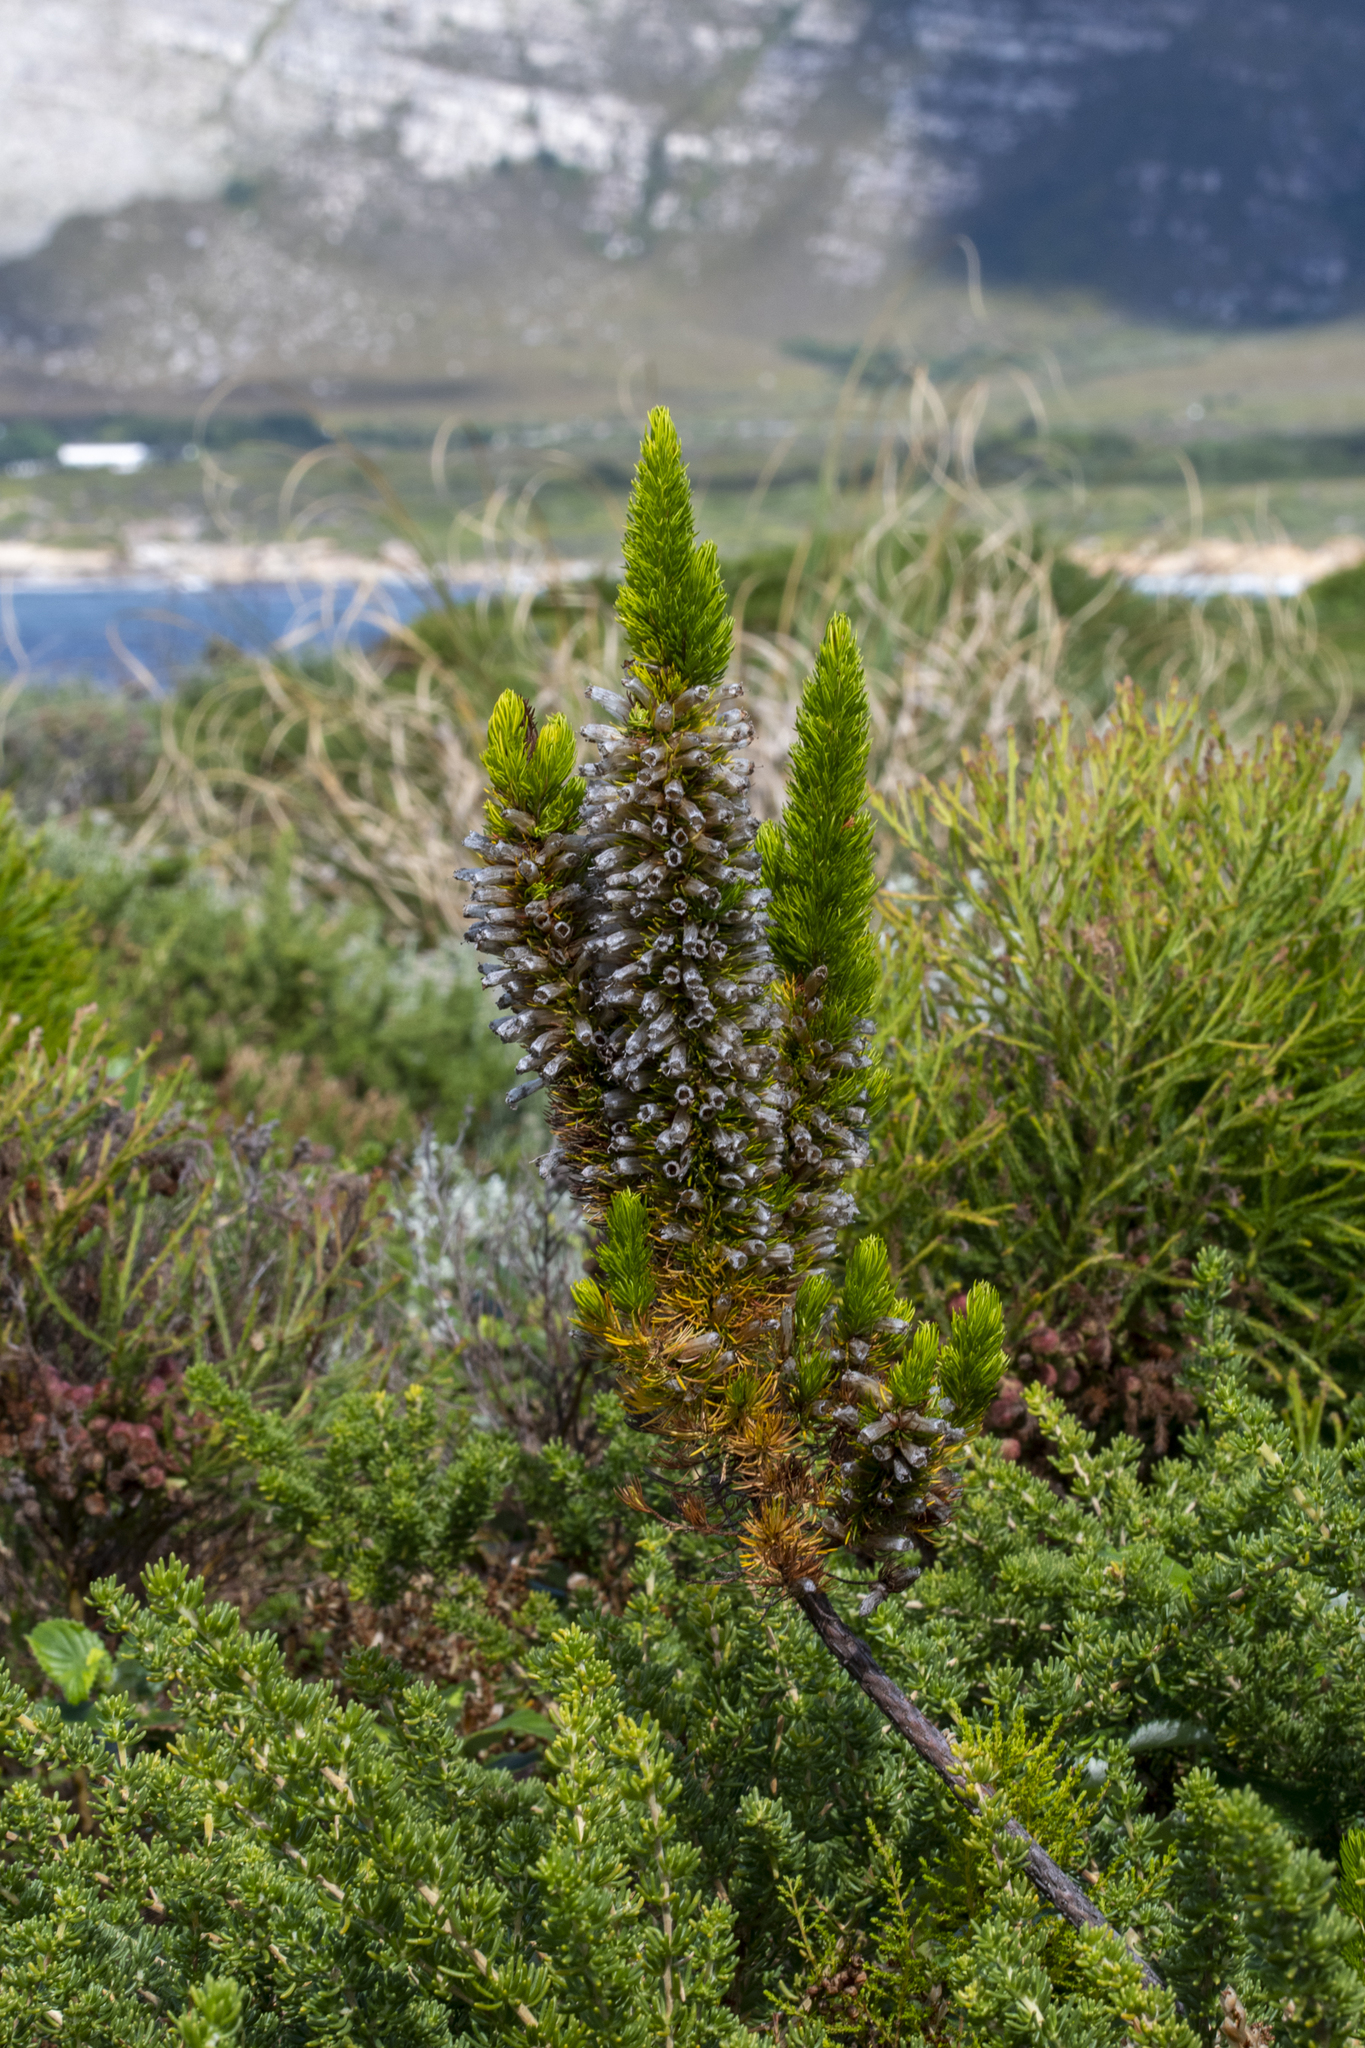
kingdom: Plantae
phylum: Tracheophyta
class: Magnoliopsida
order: Ericales
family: Ericaceae
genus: Erica
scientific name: Erica patersonia
